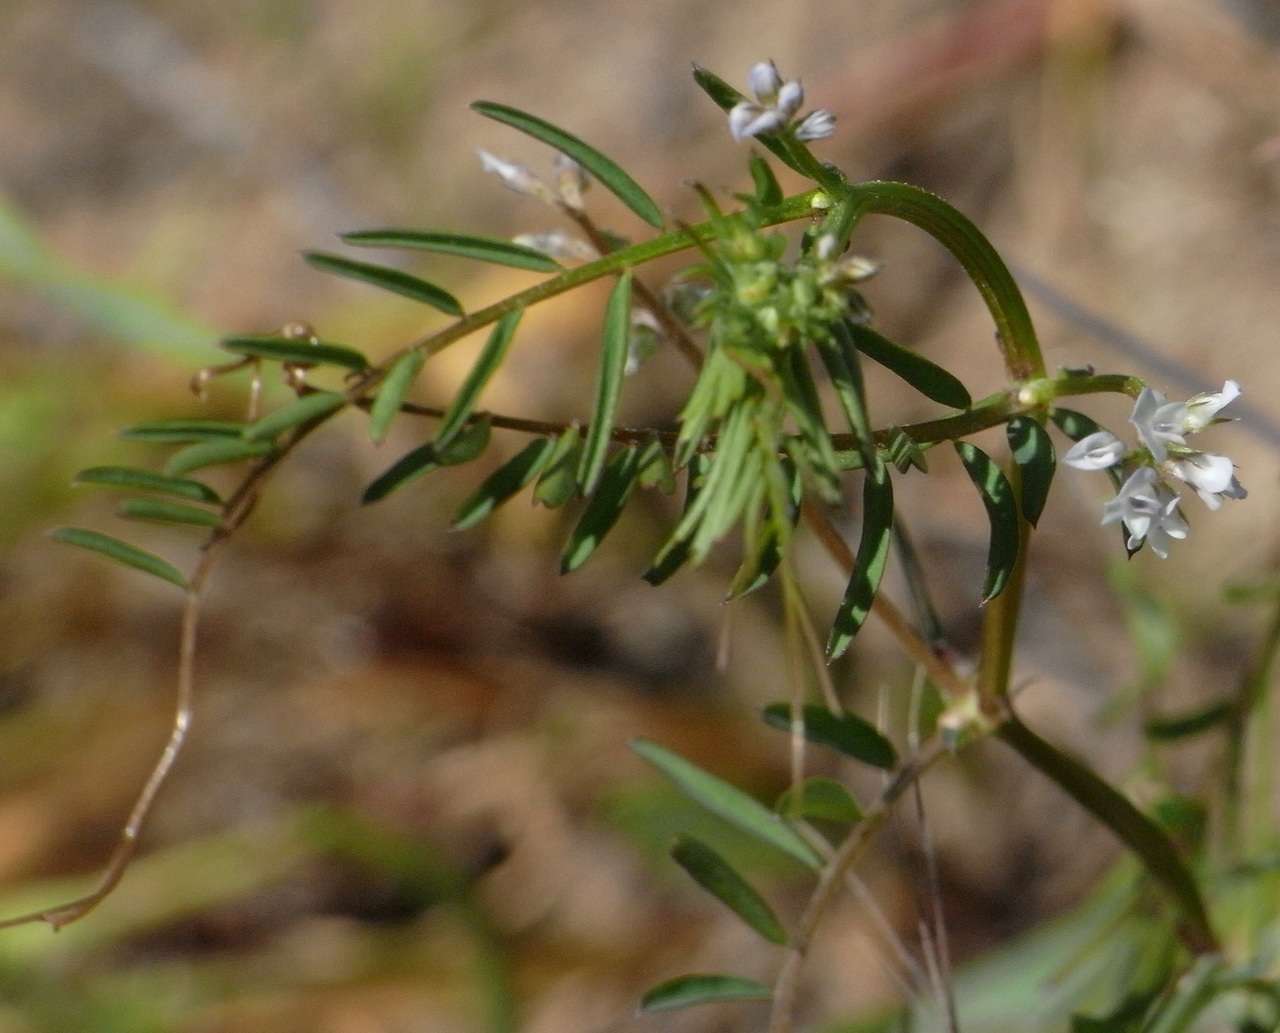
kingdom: Plantae
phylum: Tracheophyta
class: Magnoliopsida
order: Fabales
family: Fabaceae
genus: Vicia
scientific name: Vicia hirsuta
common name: Tiny vetch
